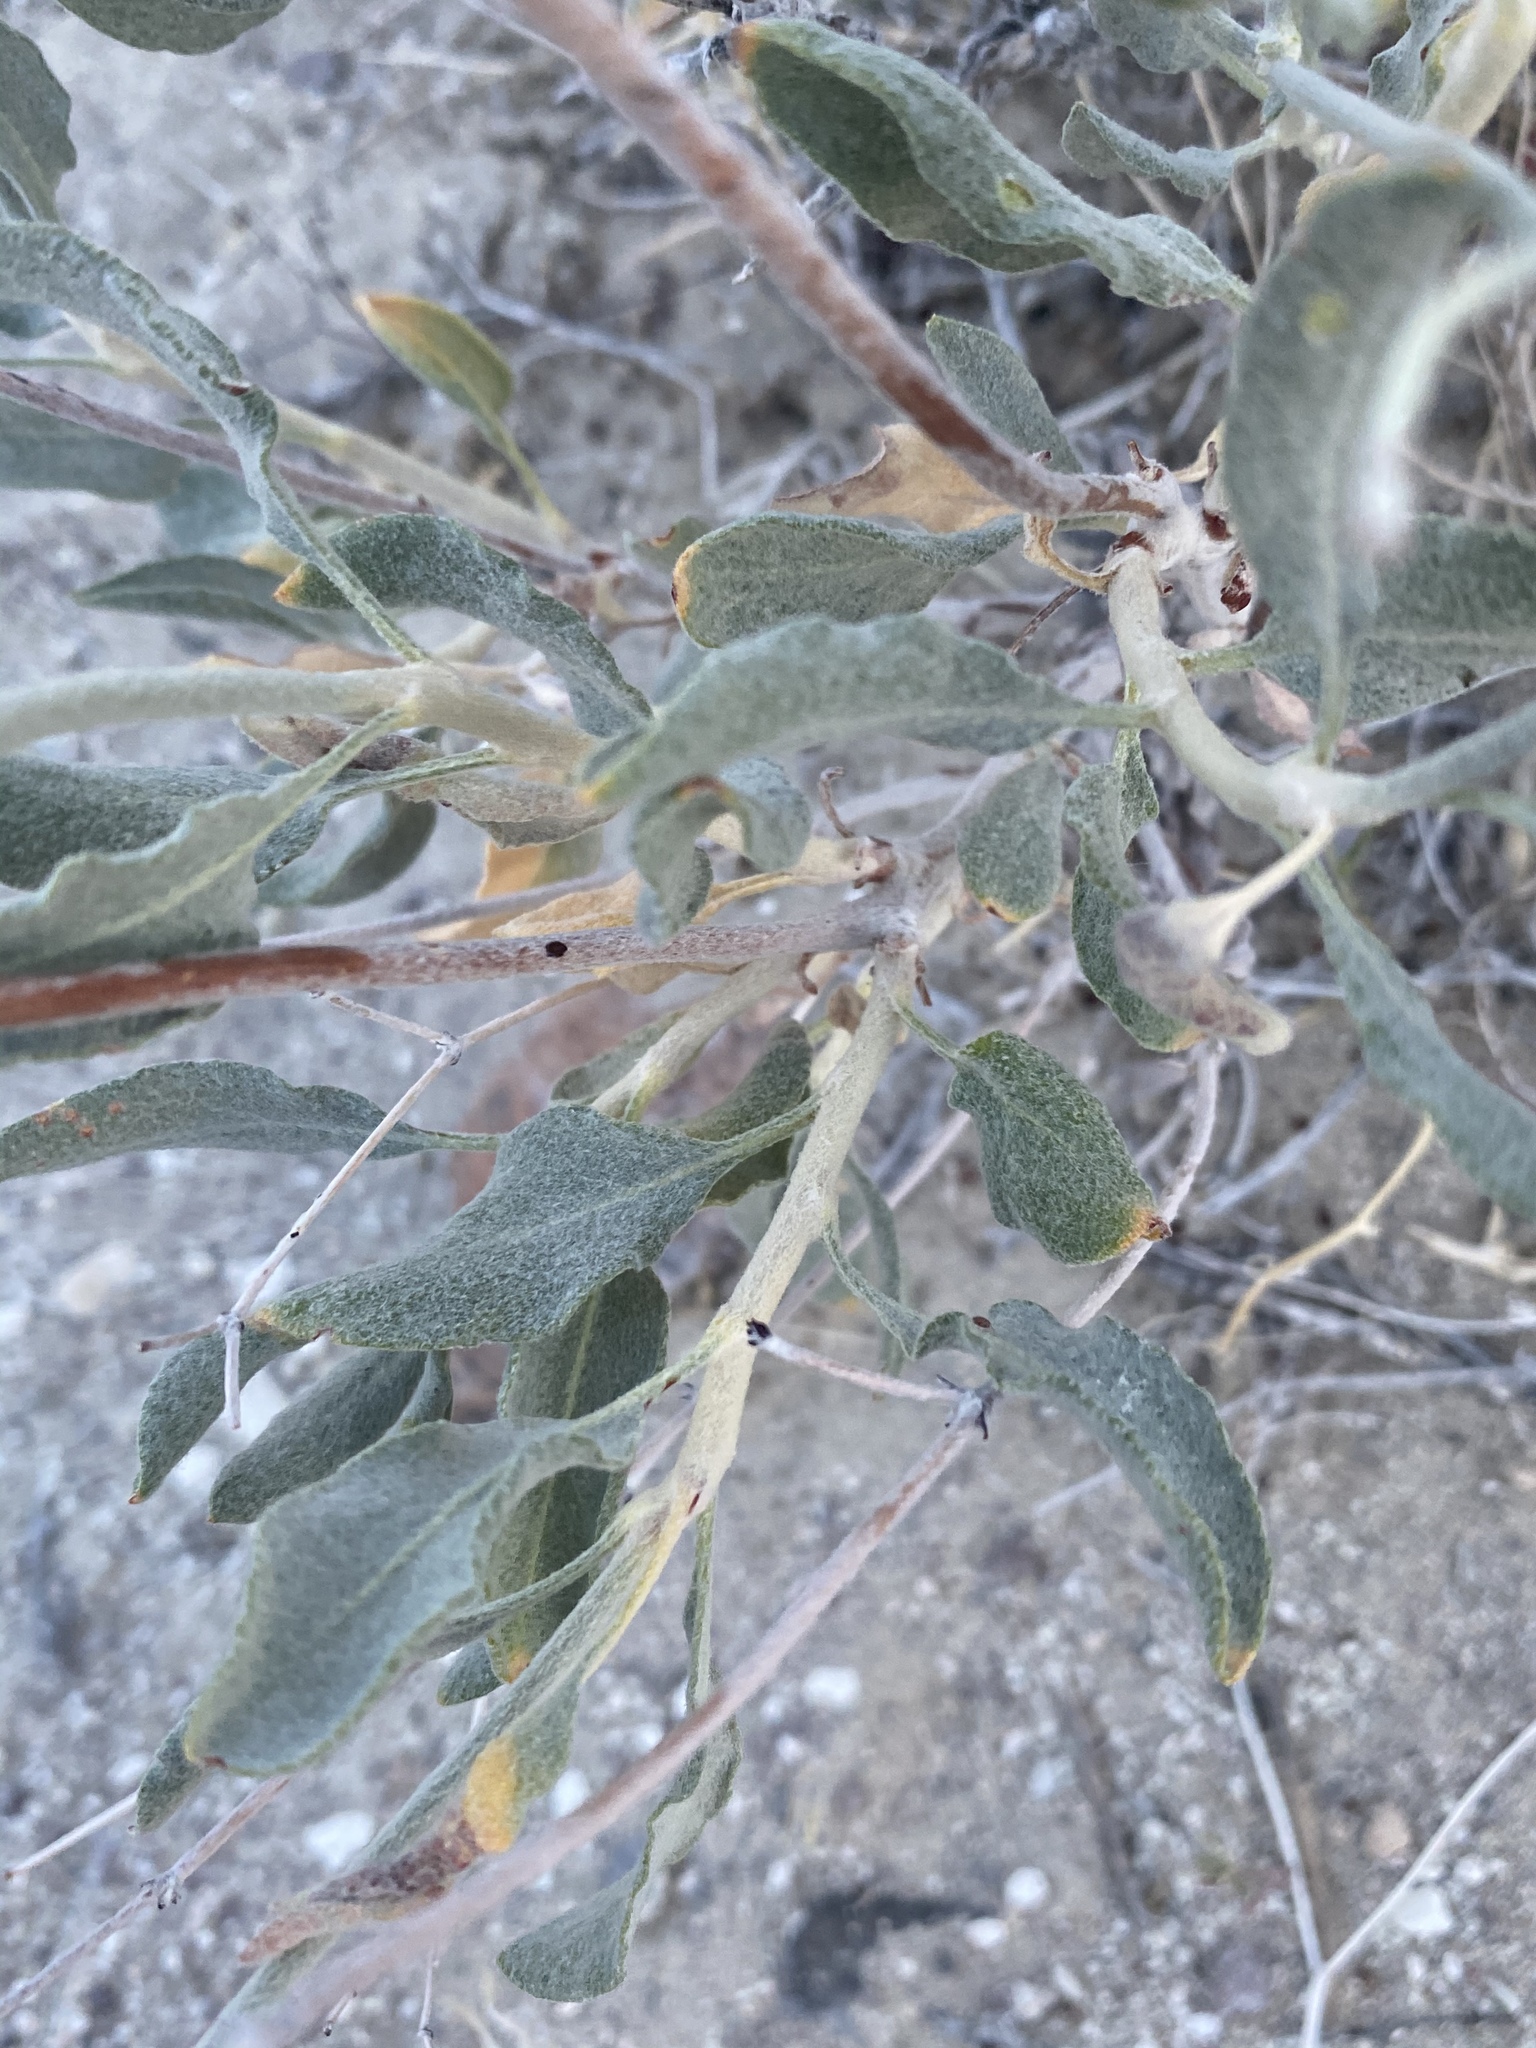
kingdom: Plantae
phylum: Tracheophyta
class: Magnoliopsida
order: Caryophyllales
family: Polygonaceae
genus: Eriogonum
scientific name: Eriogonum nummulare
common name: Kearney wild buckwheat
